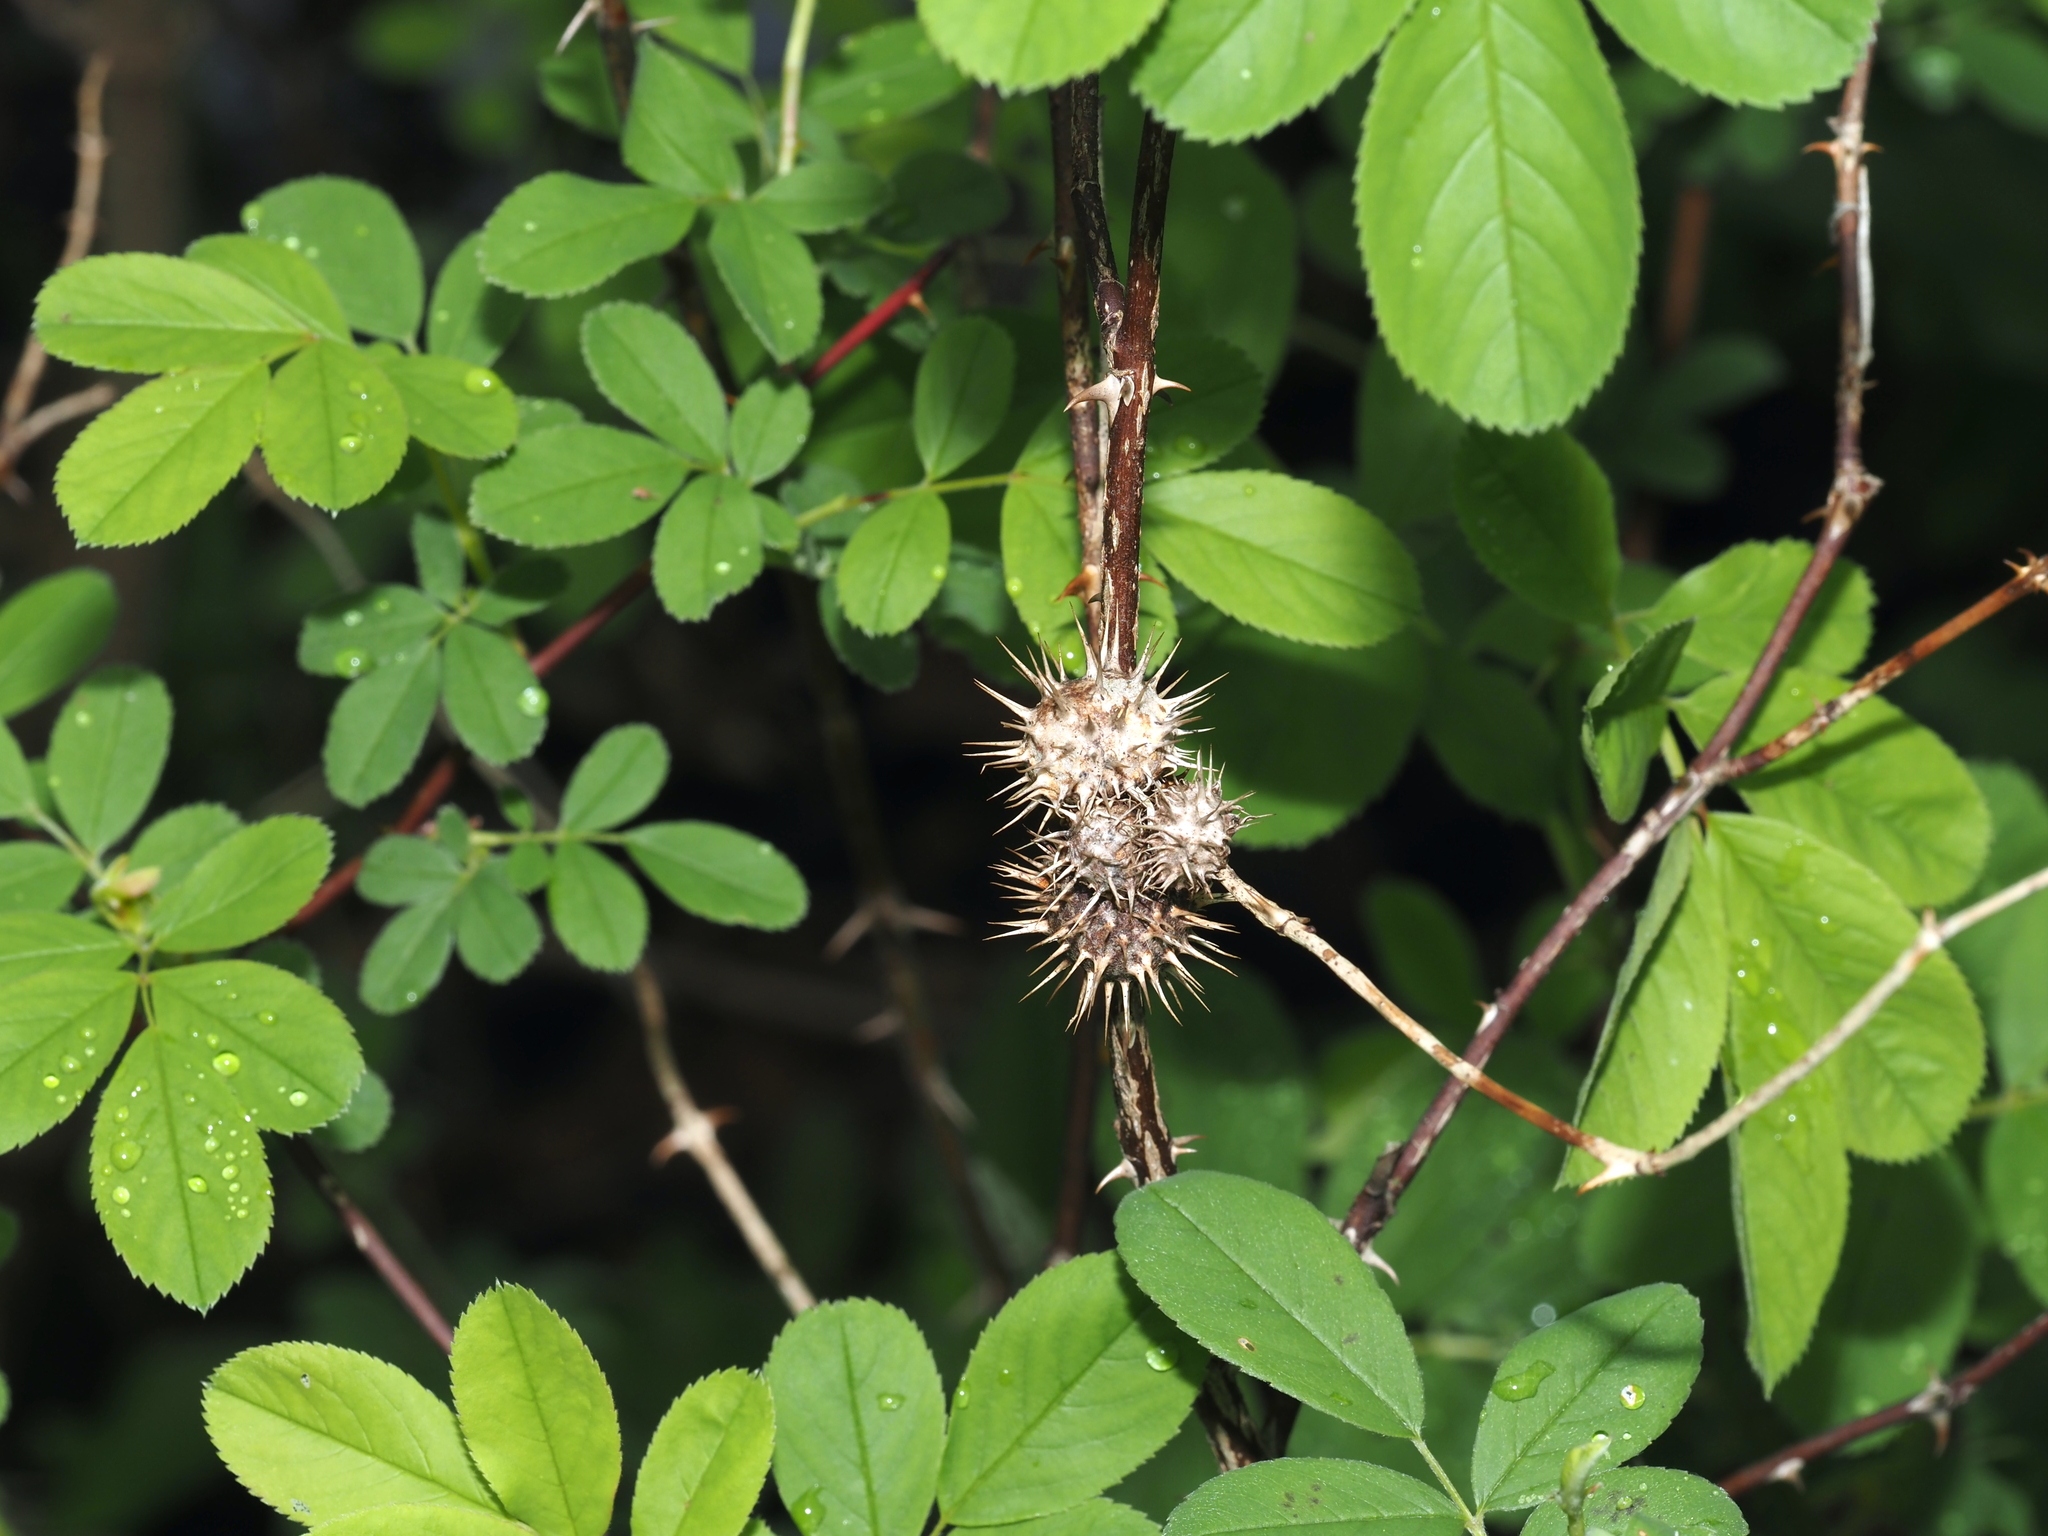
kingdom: Animalia
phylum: Arthropoda
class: Insecta
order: Hymenoptera
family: Cynipidae
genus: Diplolepis
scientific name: Diplolepis bicolor
